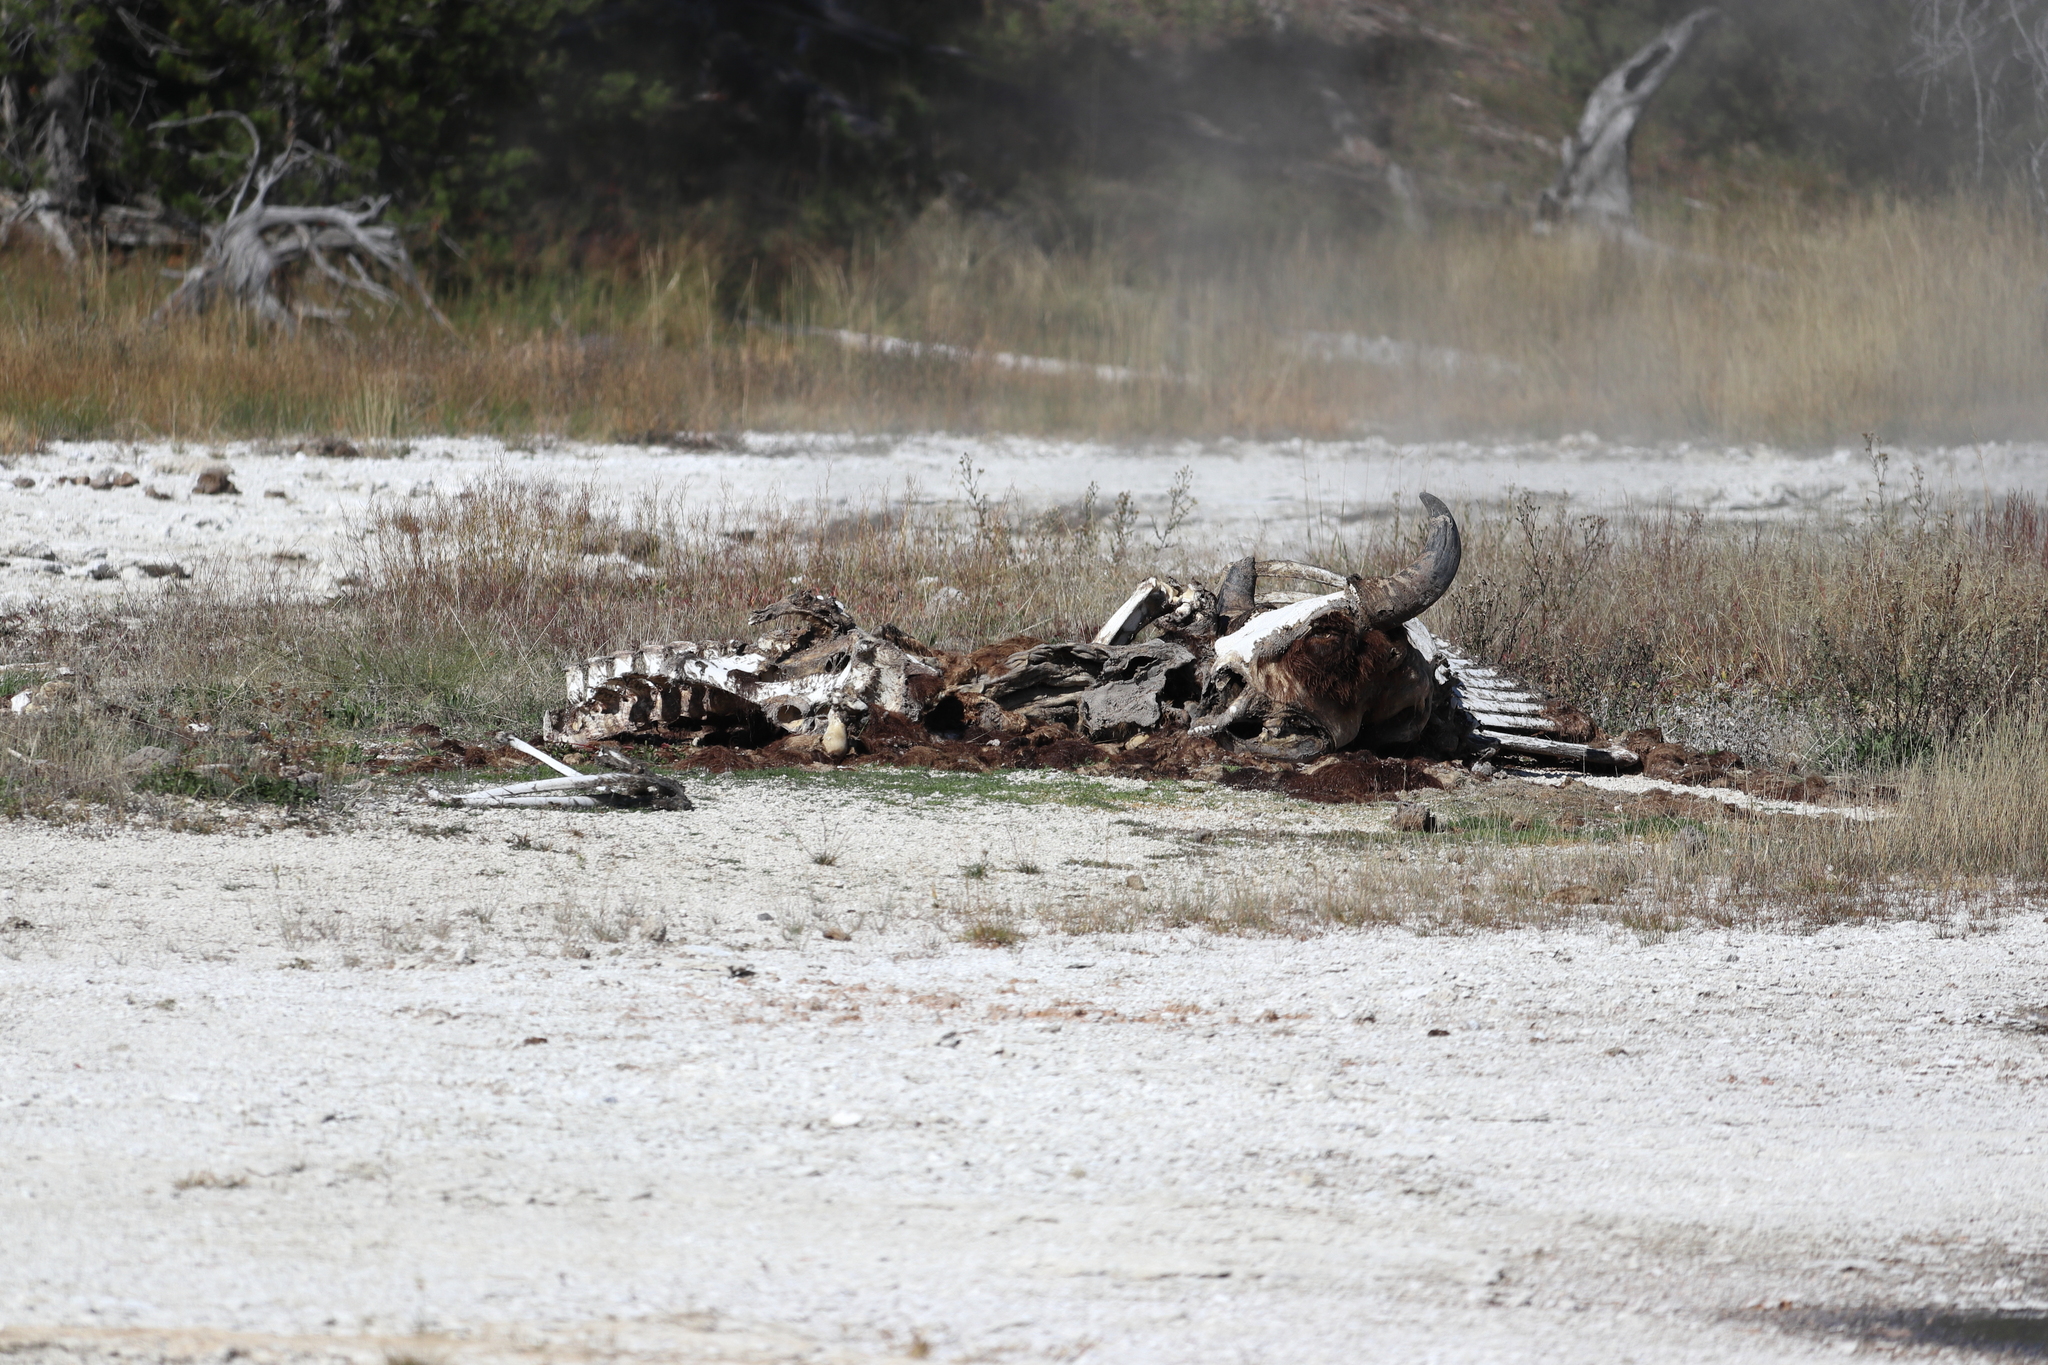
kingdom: Animalia
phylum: Chordata
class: Mammalia
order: Artiodactyla
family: Bovidae
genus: Bison
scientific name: Bison bison
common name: American bison
